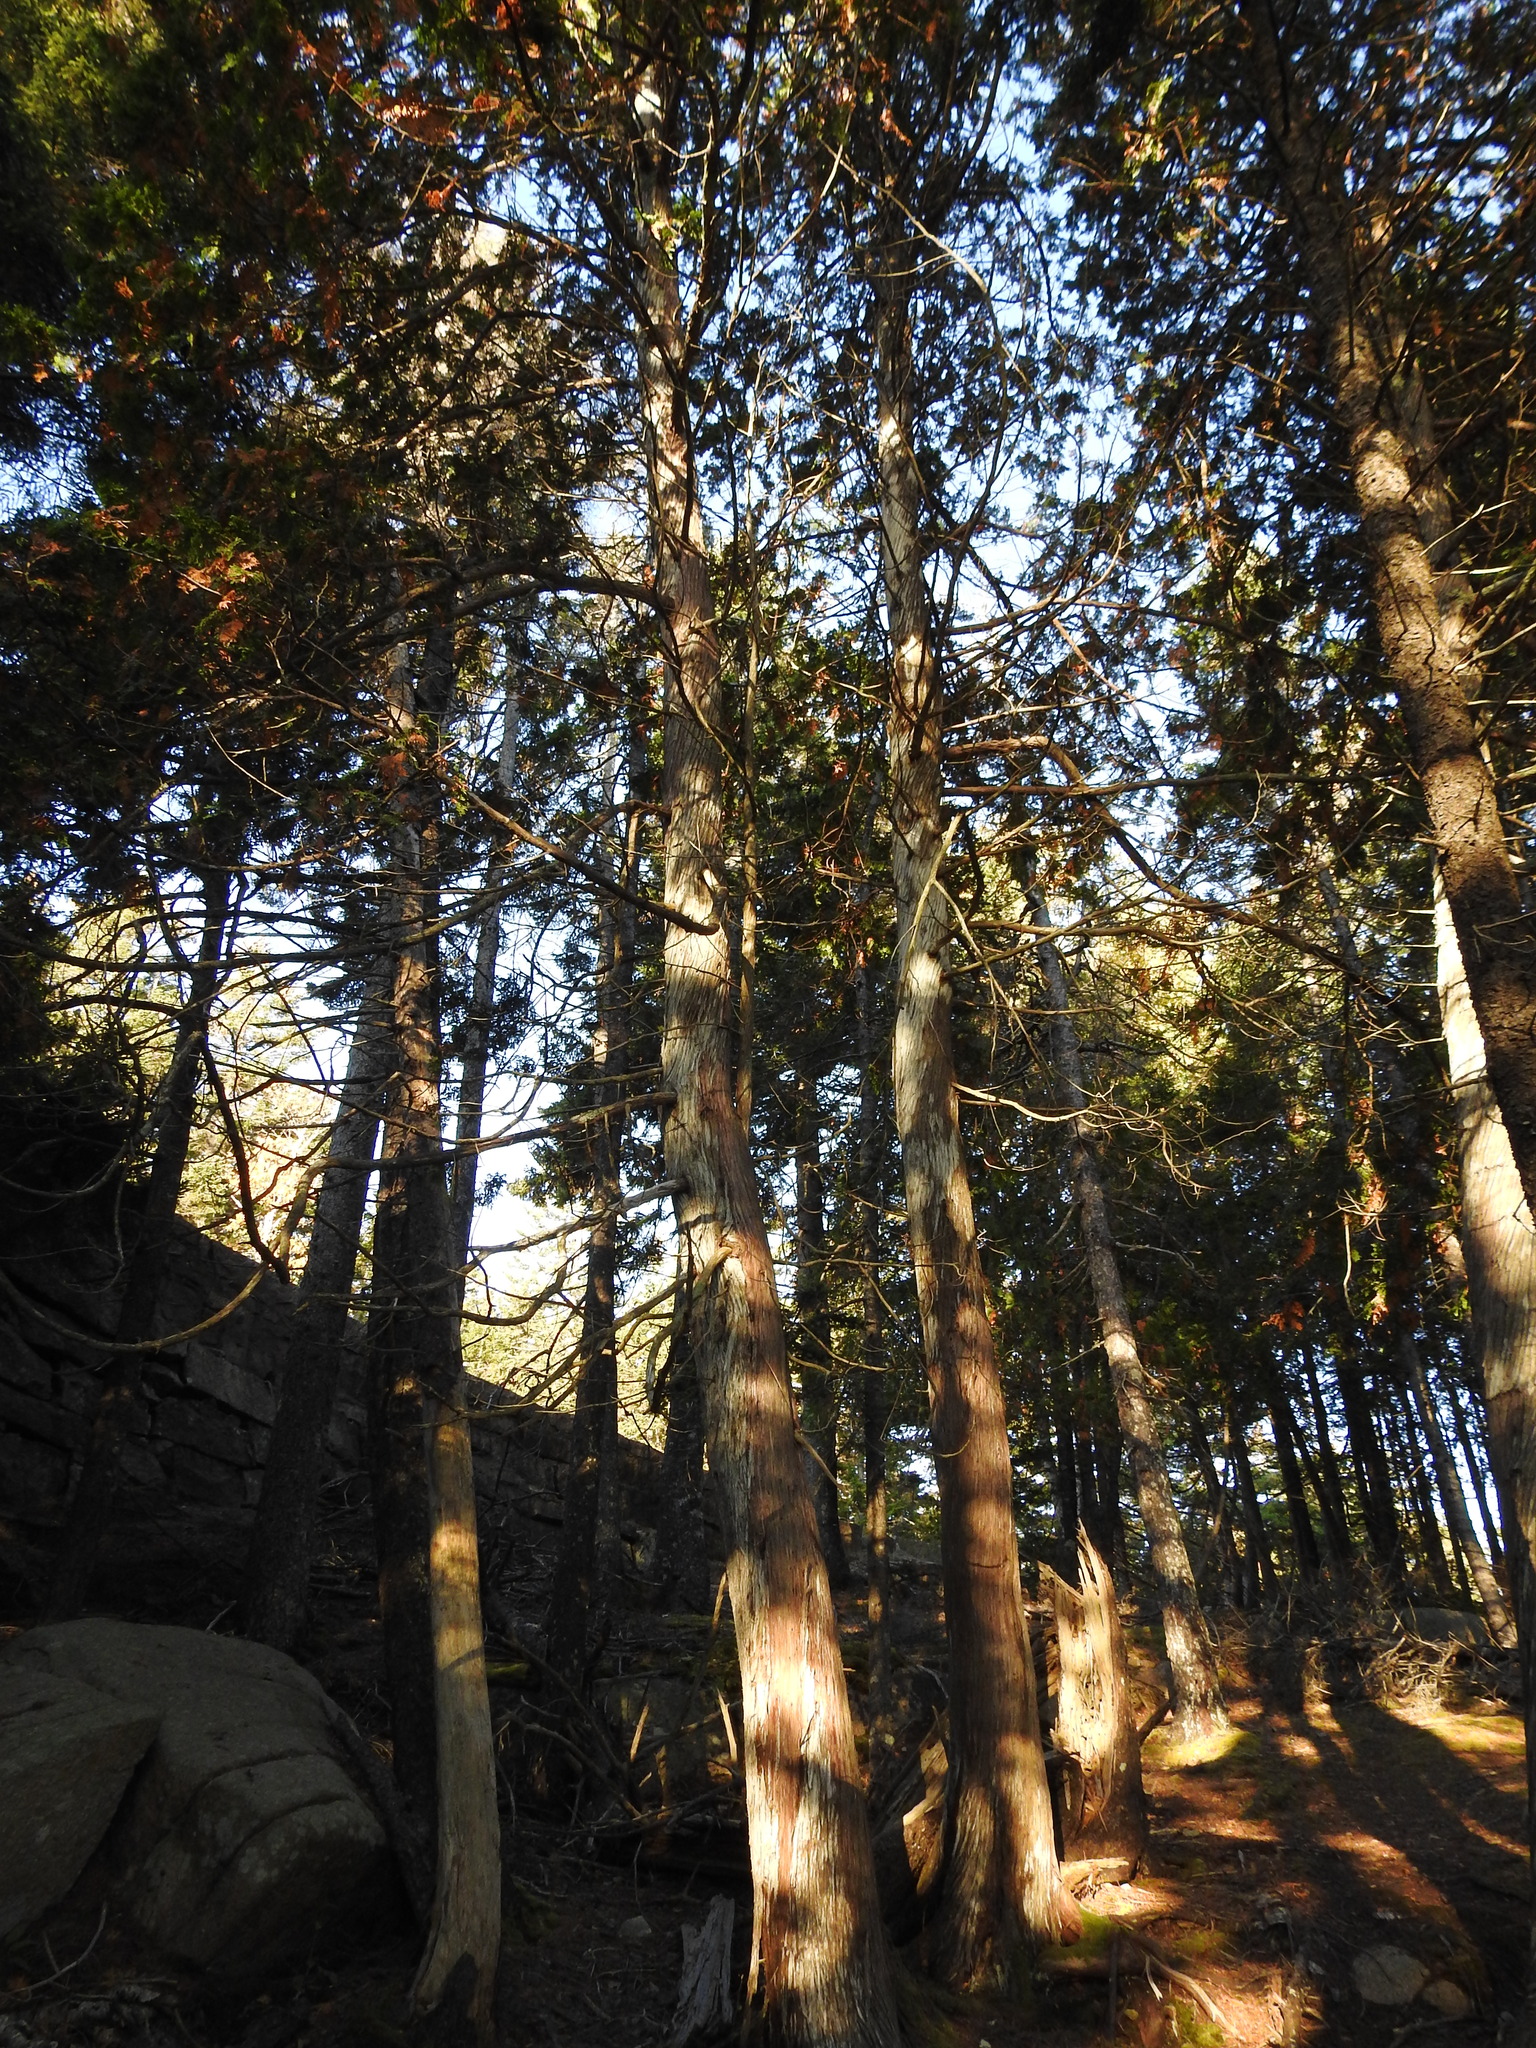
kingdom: Plantae
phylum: Tracheophyta
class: Pinopsida
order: Pinales
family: Cupressaceae
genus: Thuja
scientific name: Thuja occidentalis
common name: Northern white-cedar
